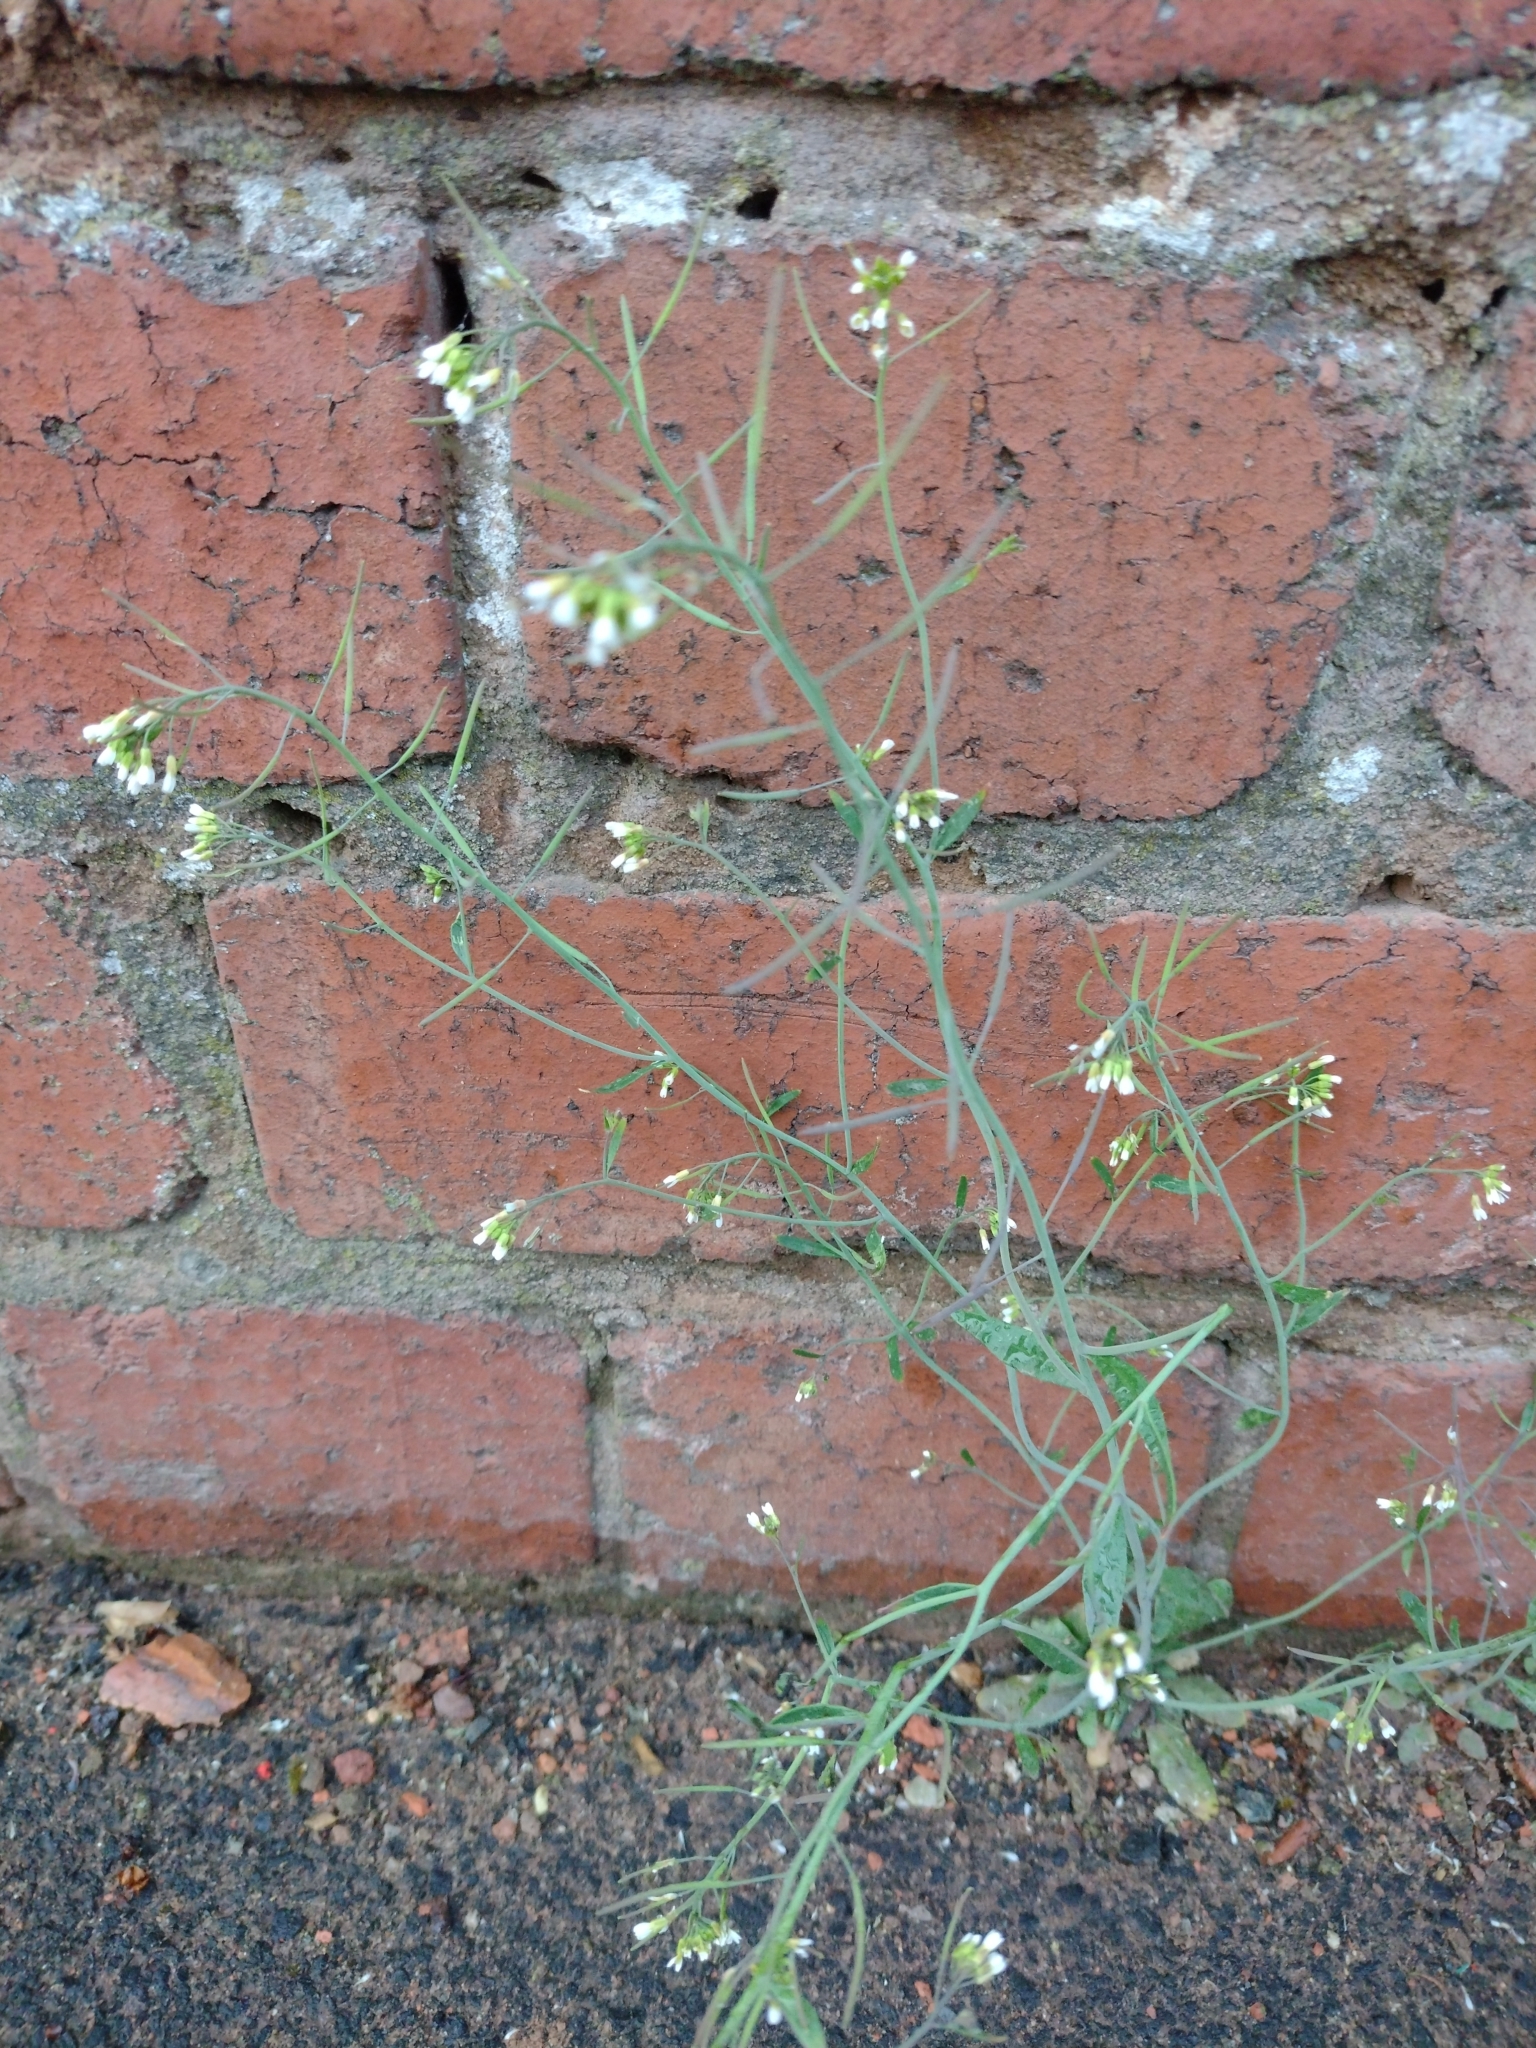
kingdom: Plantae
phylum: Tracheophyta
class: Magnoliopsida
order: Brassicales
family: Brassicaceae
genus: Arabidopsis
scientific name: Arabidopsis thaliana
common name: Thale cress
